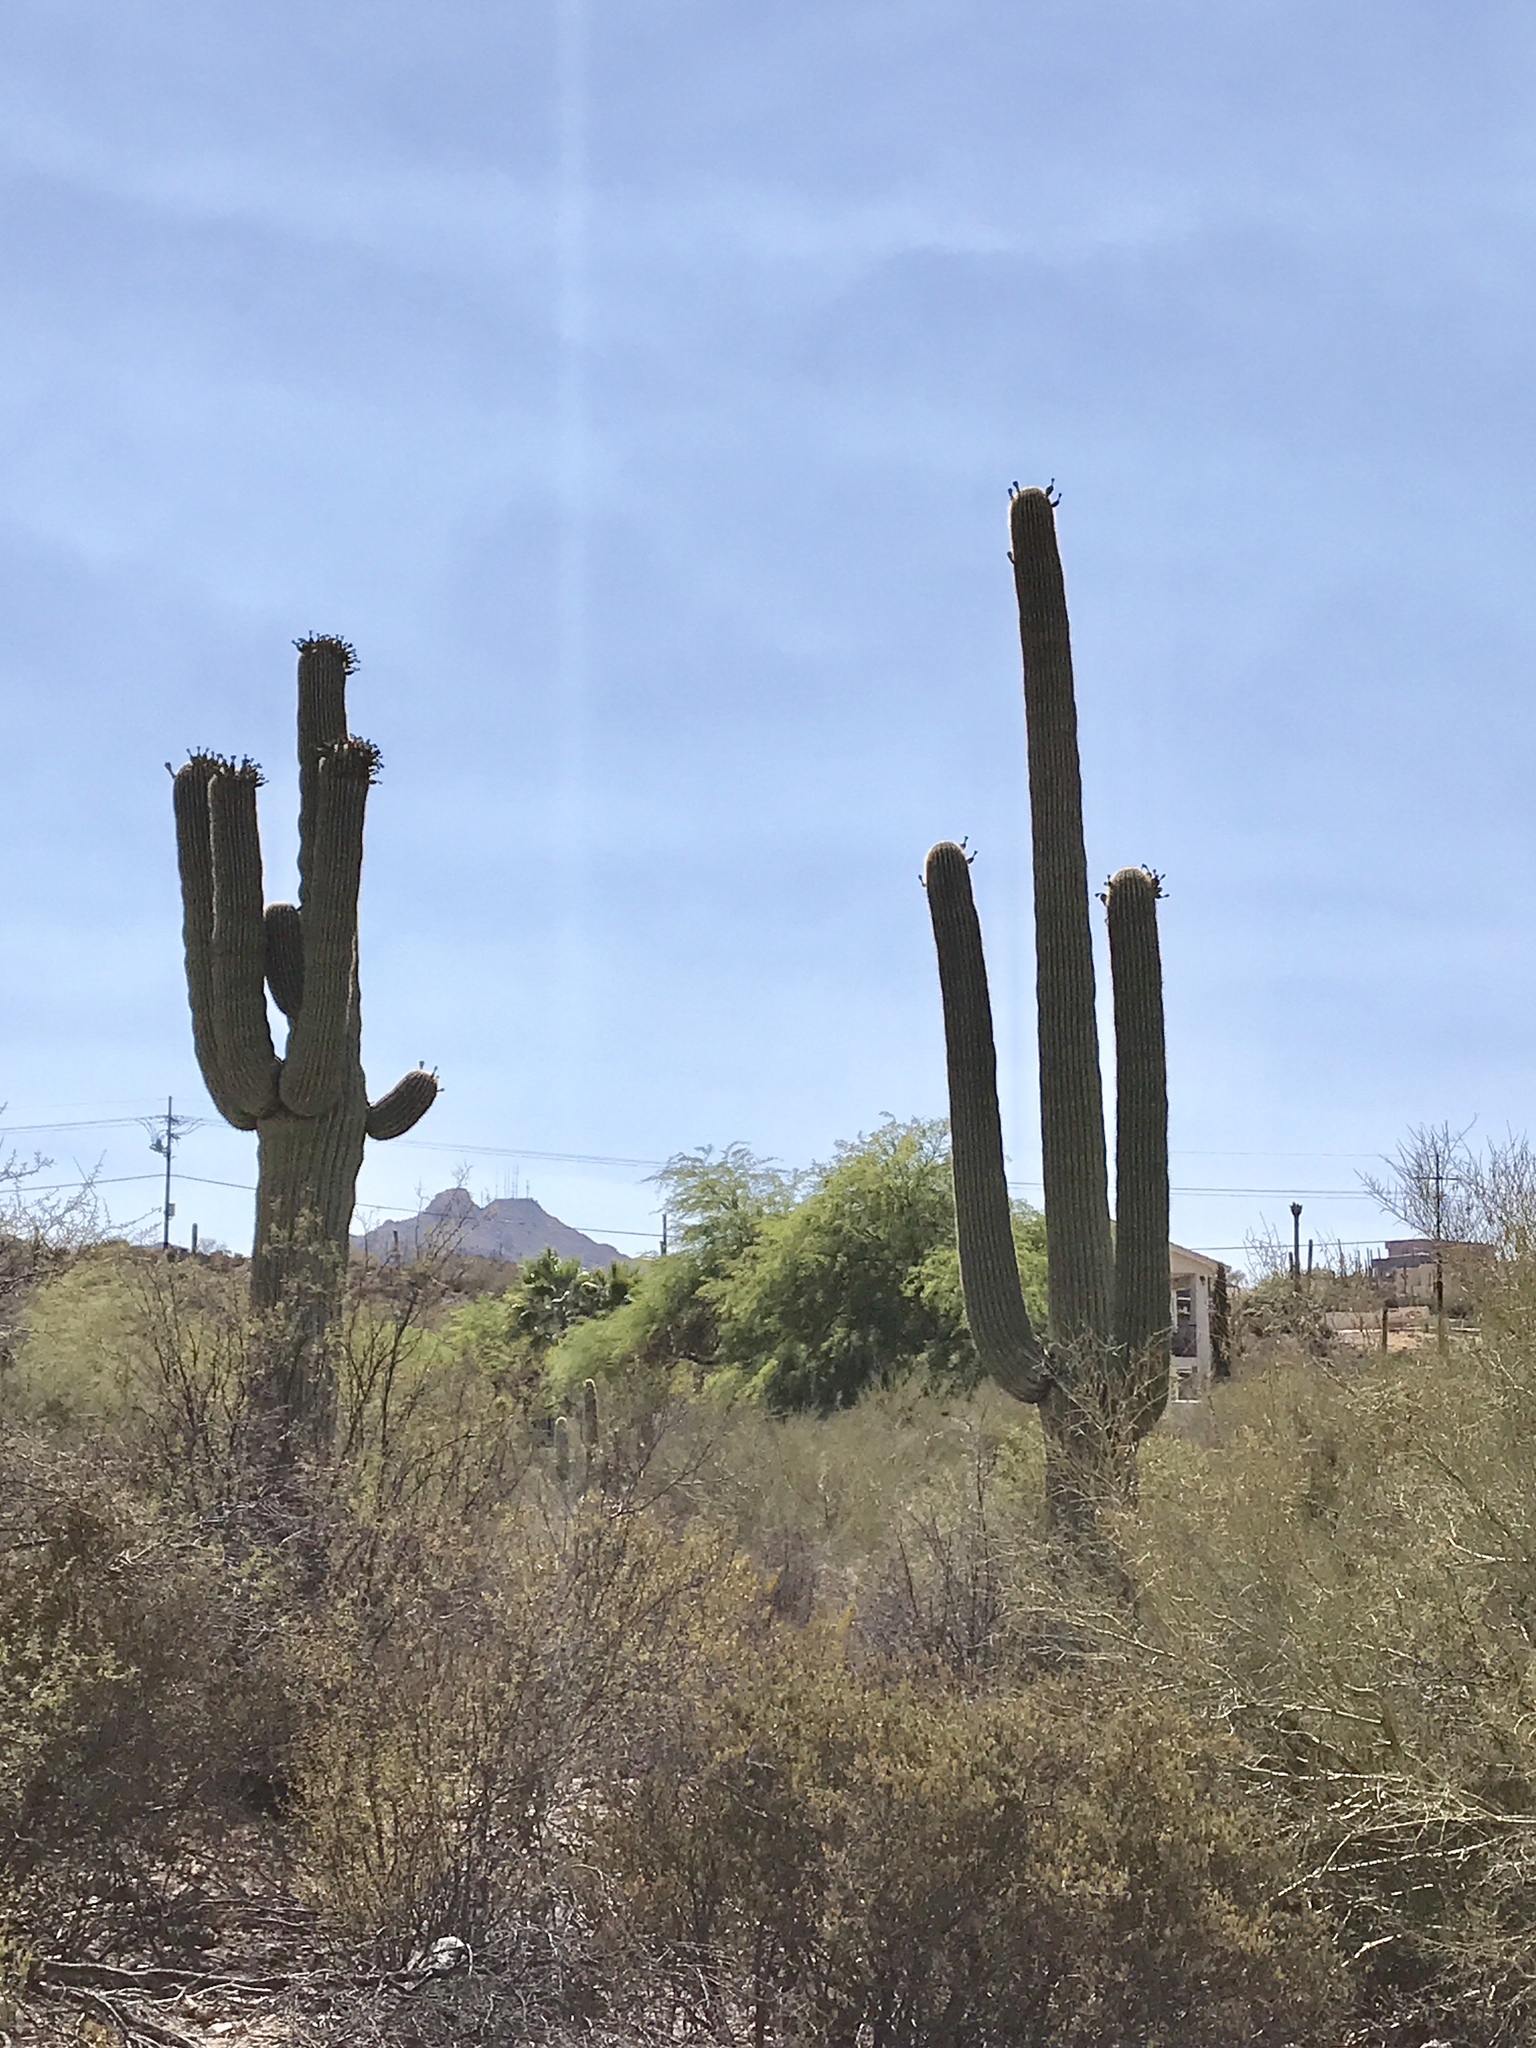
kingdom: Plantae
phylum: Tracheophyta
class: Magnoliopsida
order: Caryophyllales
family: Cactaceae
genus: Carnegiea
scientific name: Carnegiea gigantea
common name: Saguaro
